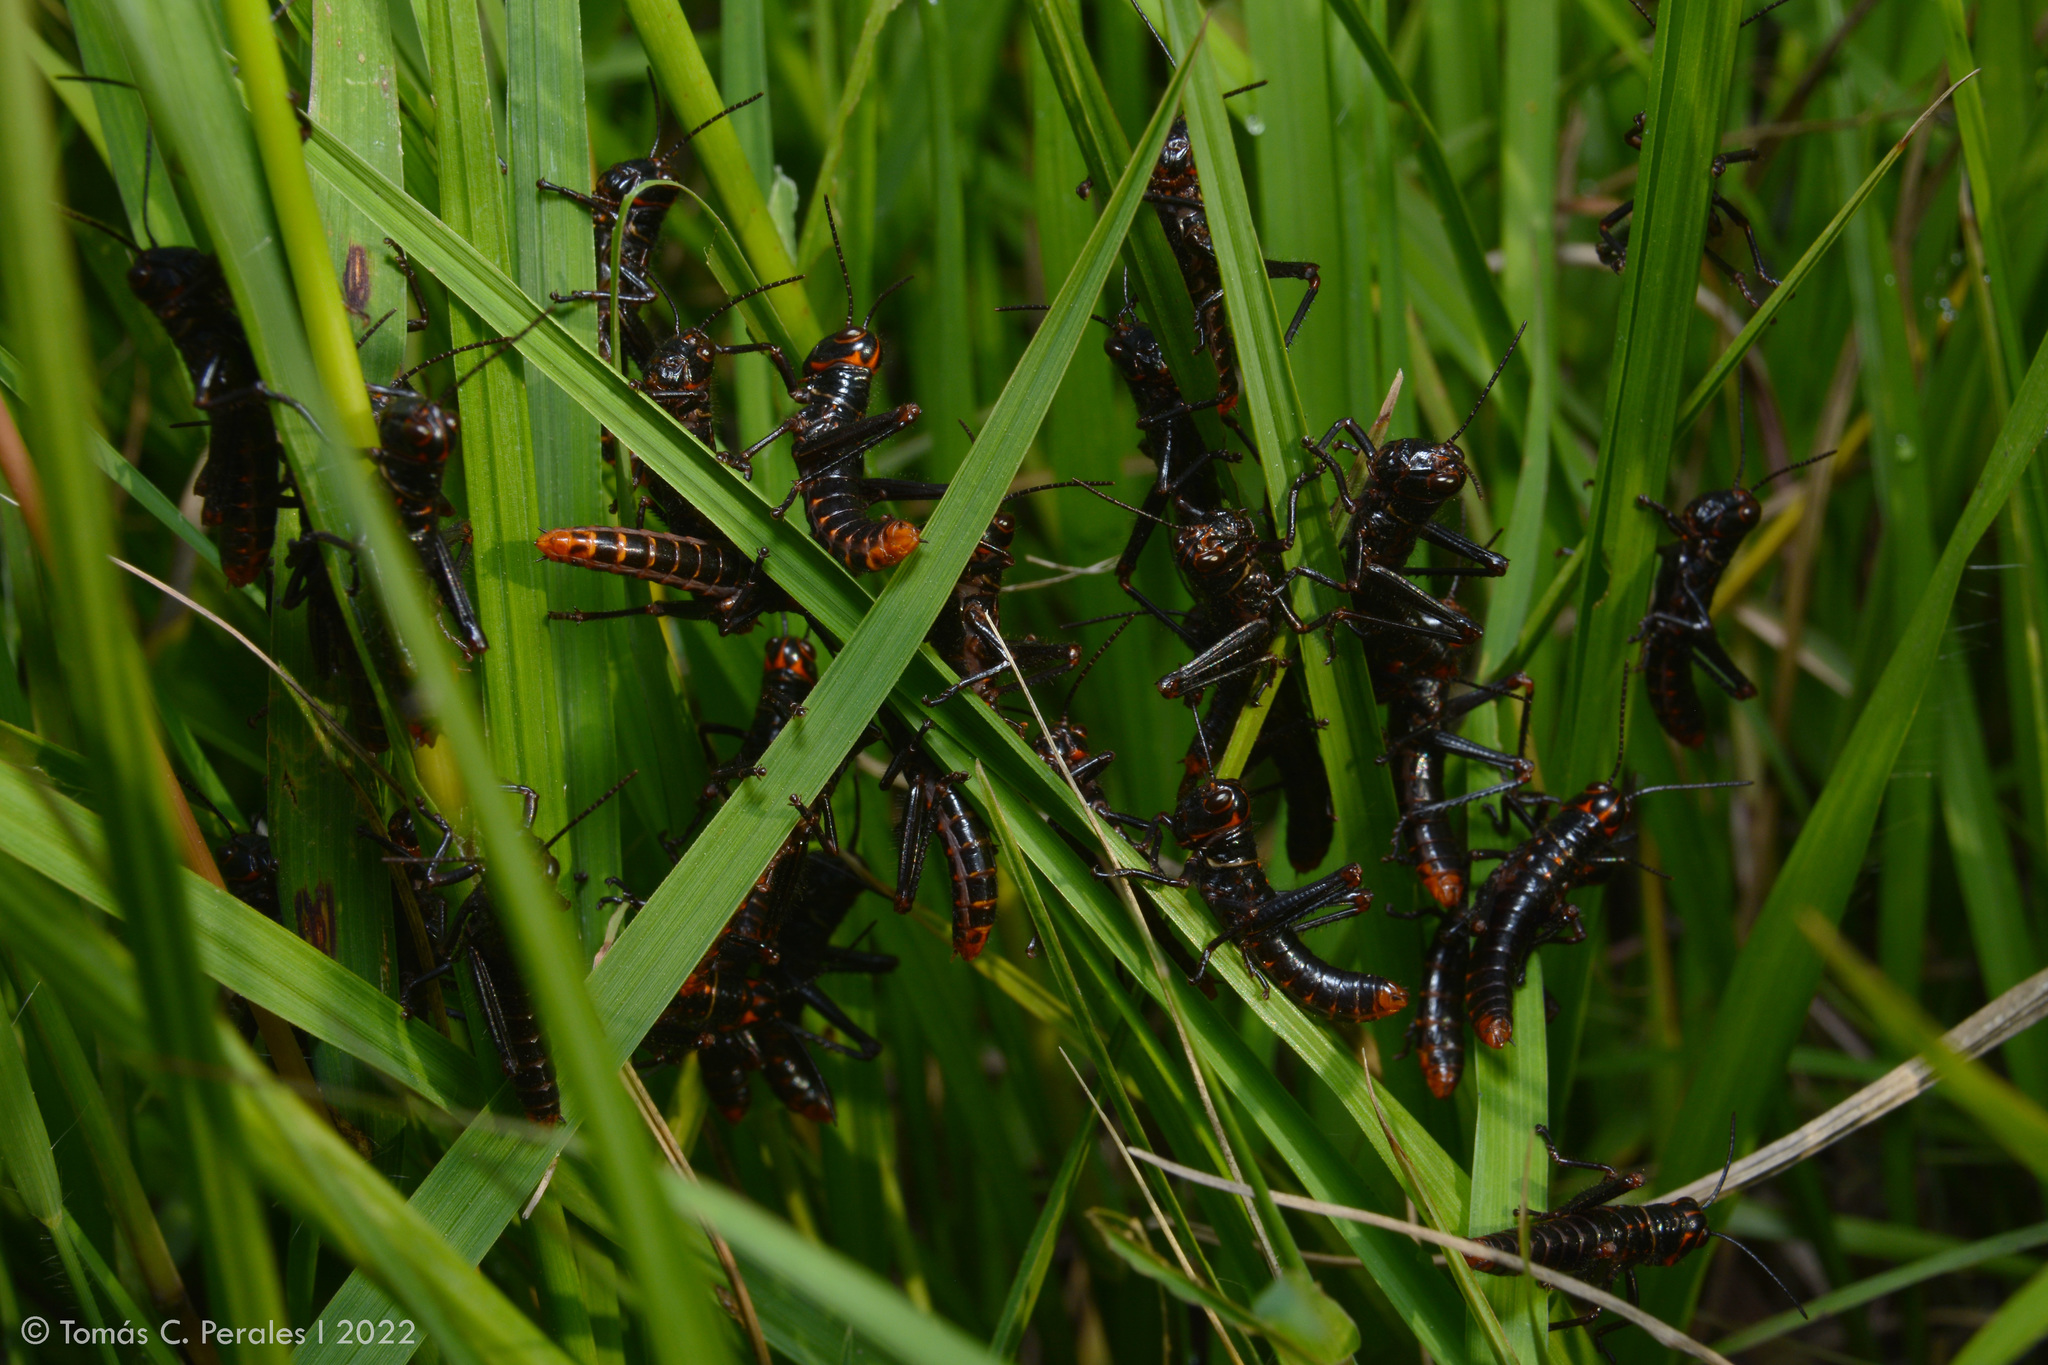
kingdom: Animalia
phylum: Arthropoda
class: Insecta
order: Orthoptera
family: Romaleidae
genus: Tropidacris
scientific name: Tropidacris collaris
